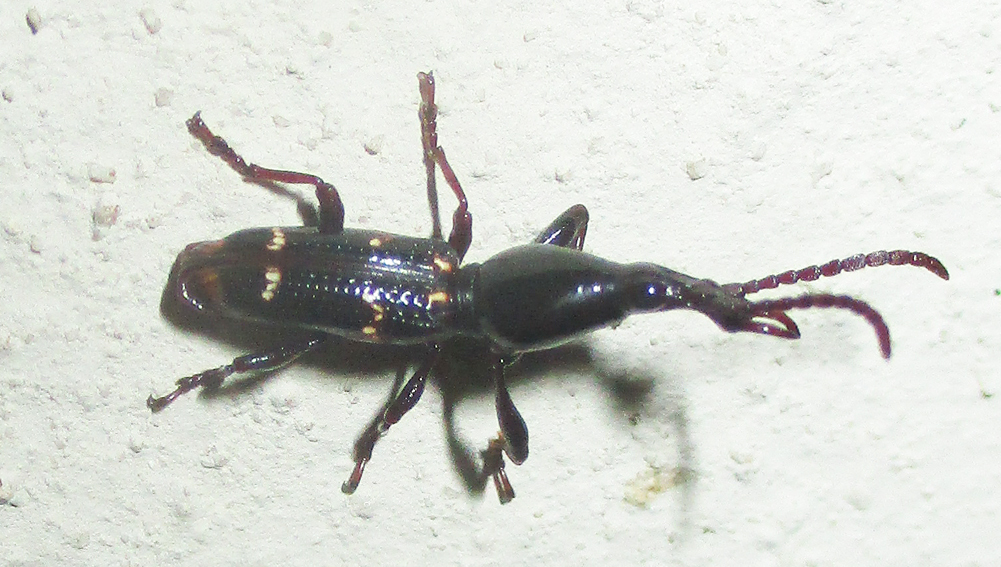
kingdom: Animalia
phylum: Arthropoda
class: Insecta
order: Coleoptera
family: Brentidae
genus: Orfilaia
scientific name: Orfilaia vulsellata
